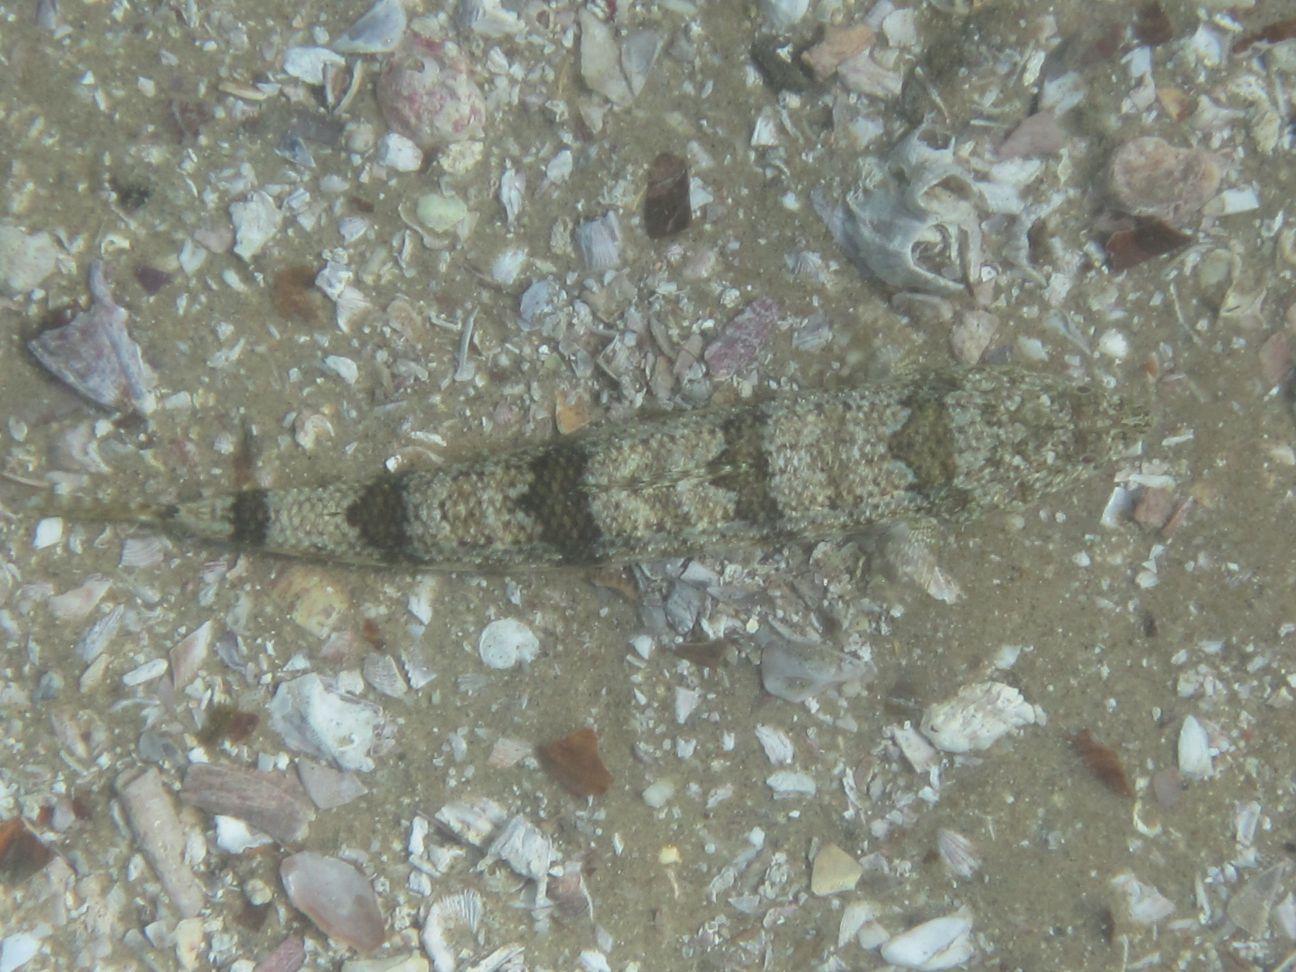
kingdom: Animalia
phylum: Chordata
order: Aulopiformes
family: Synodontidae
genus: Synodus
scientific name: Synodus dermatogenys
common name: Banded lizardfish
